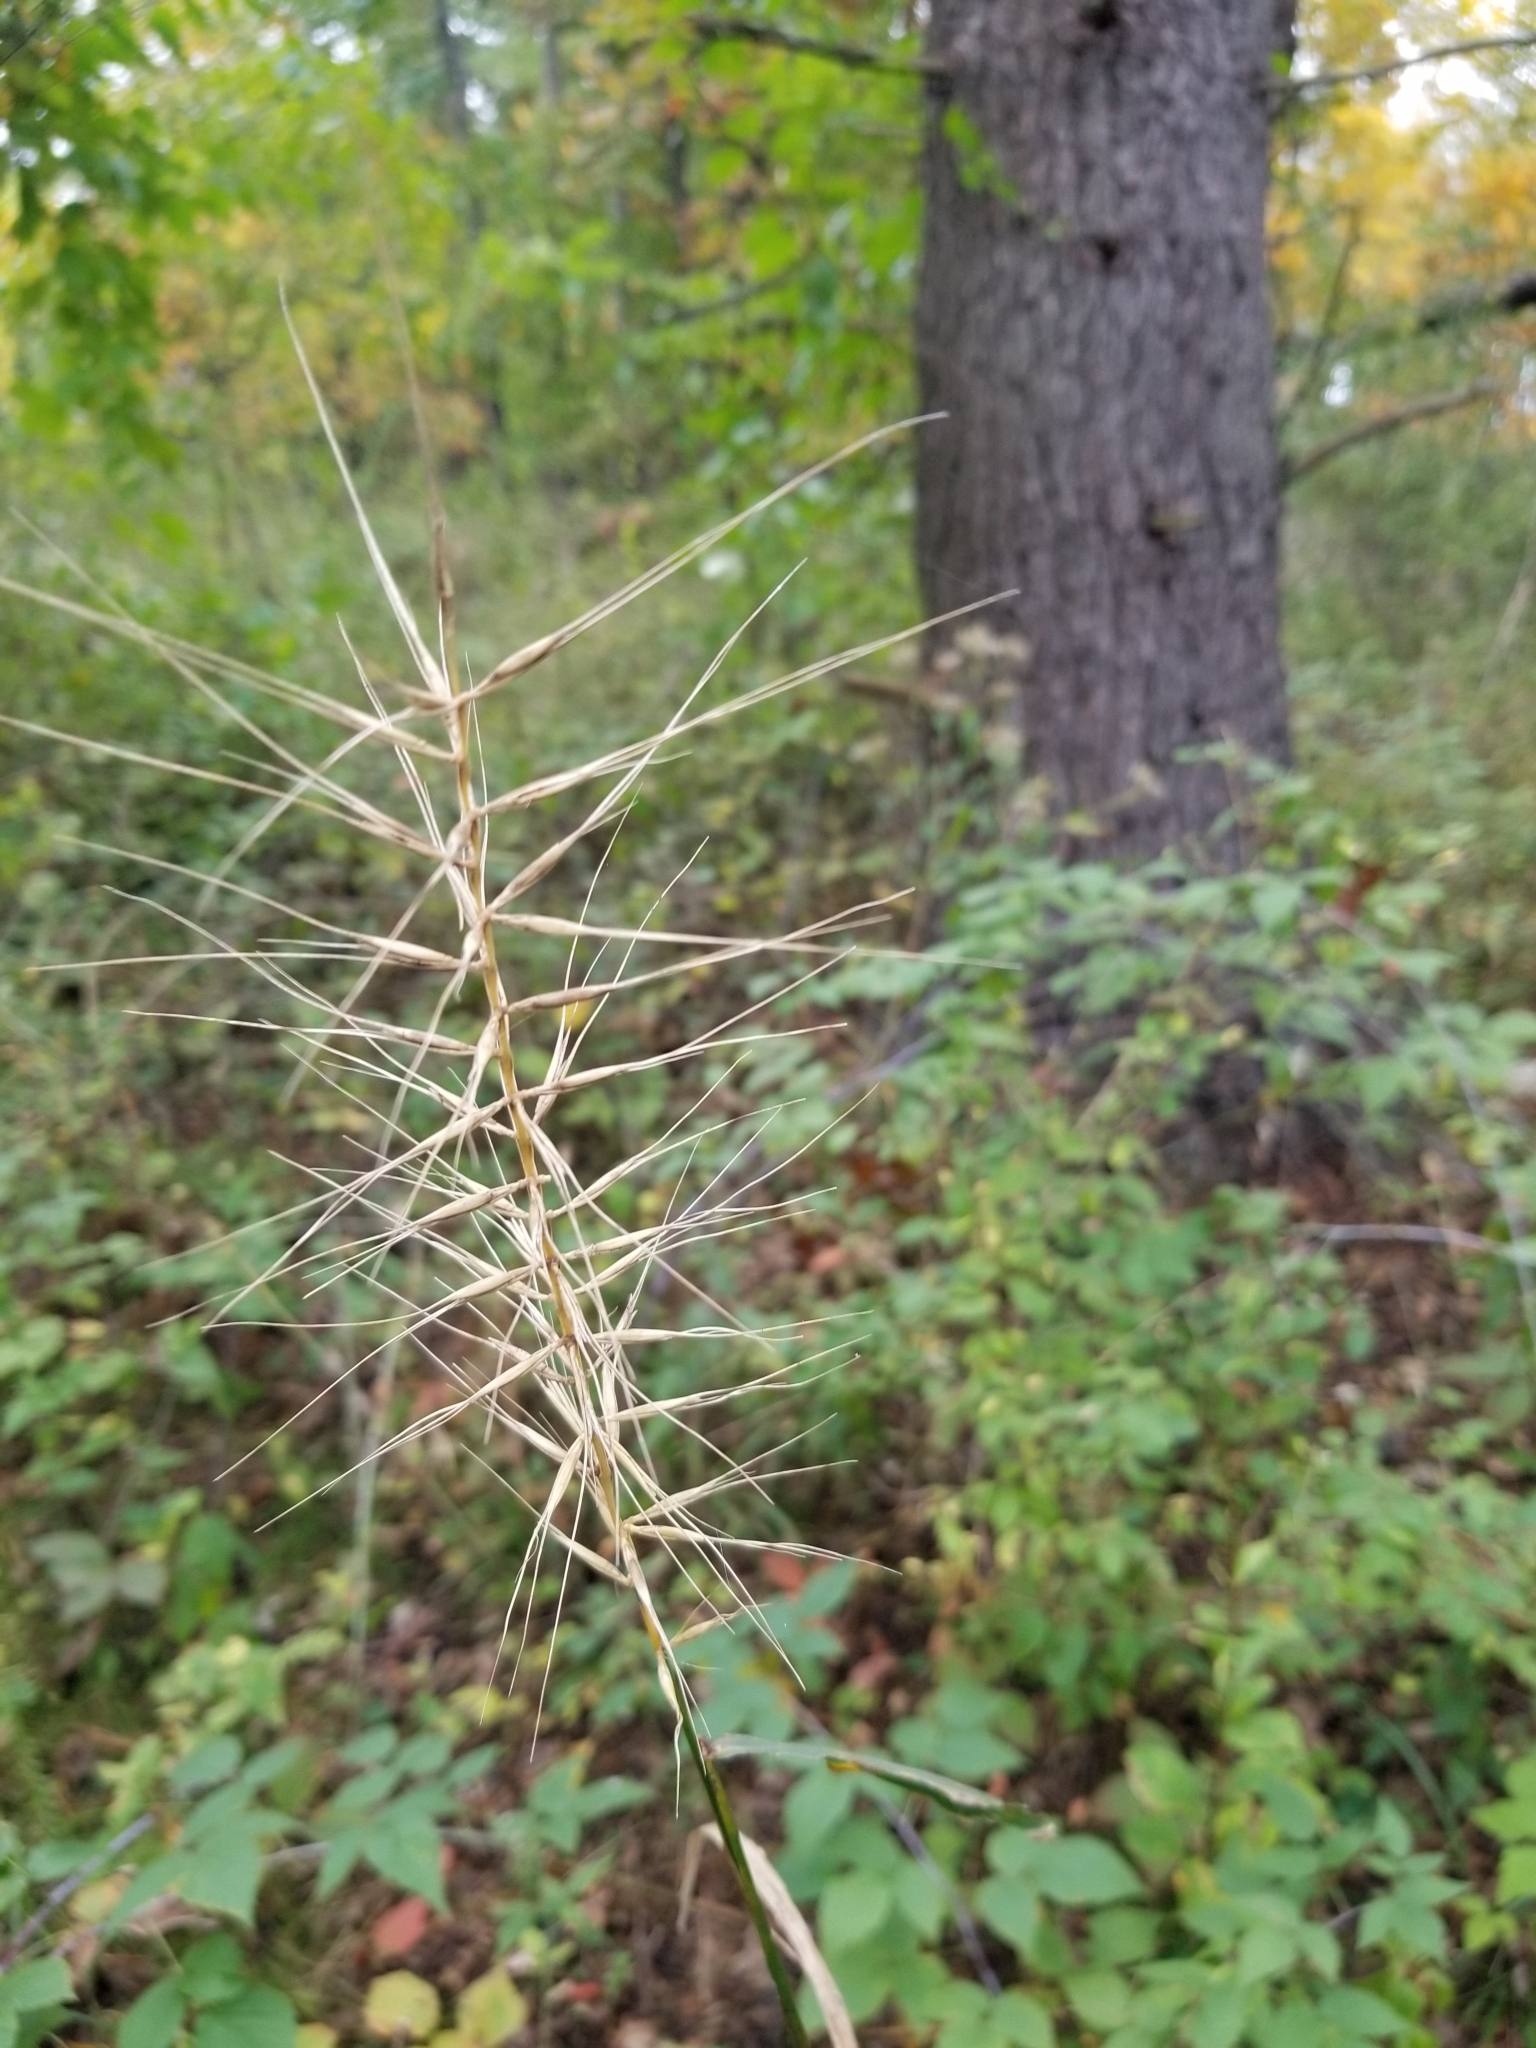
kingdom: Plantae
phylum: Tracheophyta
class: Liliopsida
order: Poales
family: Poaceae
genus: Elymus
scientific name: Elymus hystrix
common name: Bottlebrush grass
